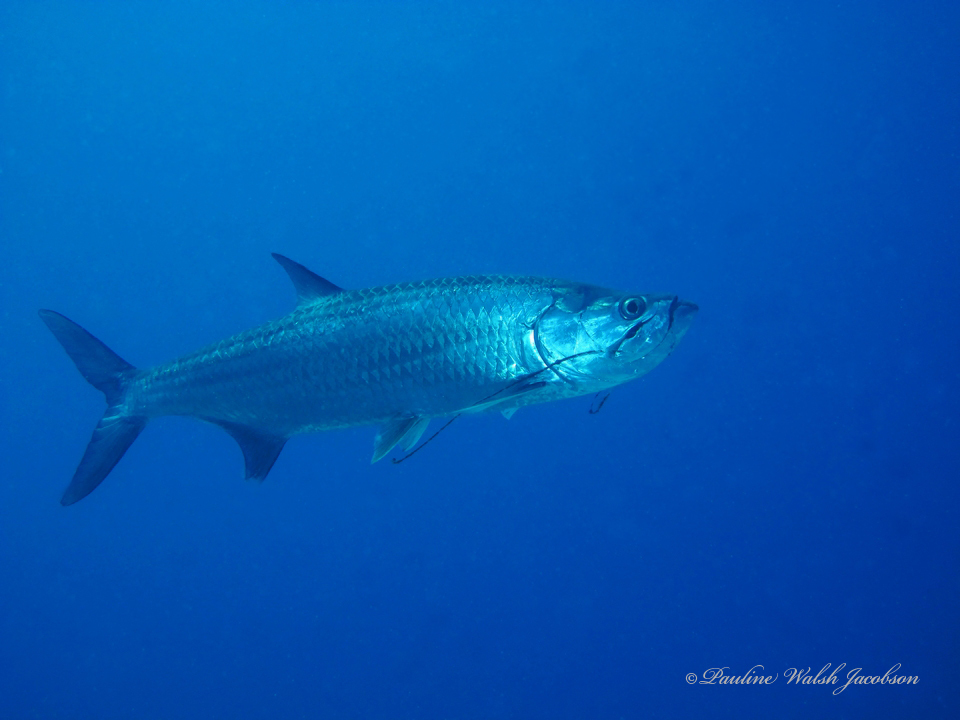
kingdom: Animalia
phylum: Chordata
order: Elopiformes
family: Megalopidae
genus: Megalops
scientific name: Megalops atlanticus
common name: Tarpon
